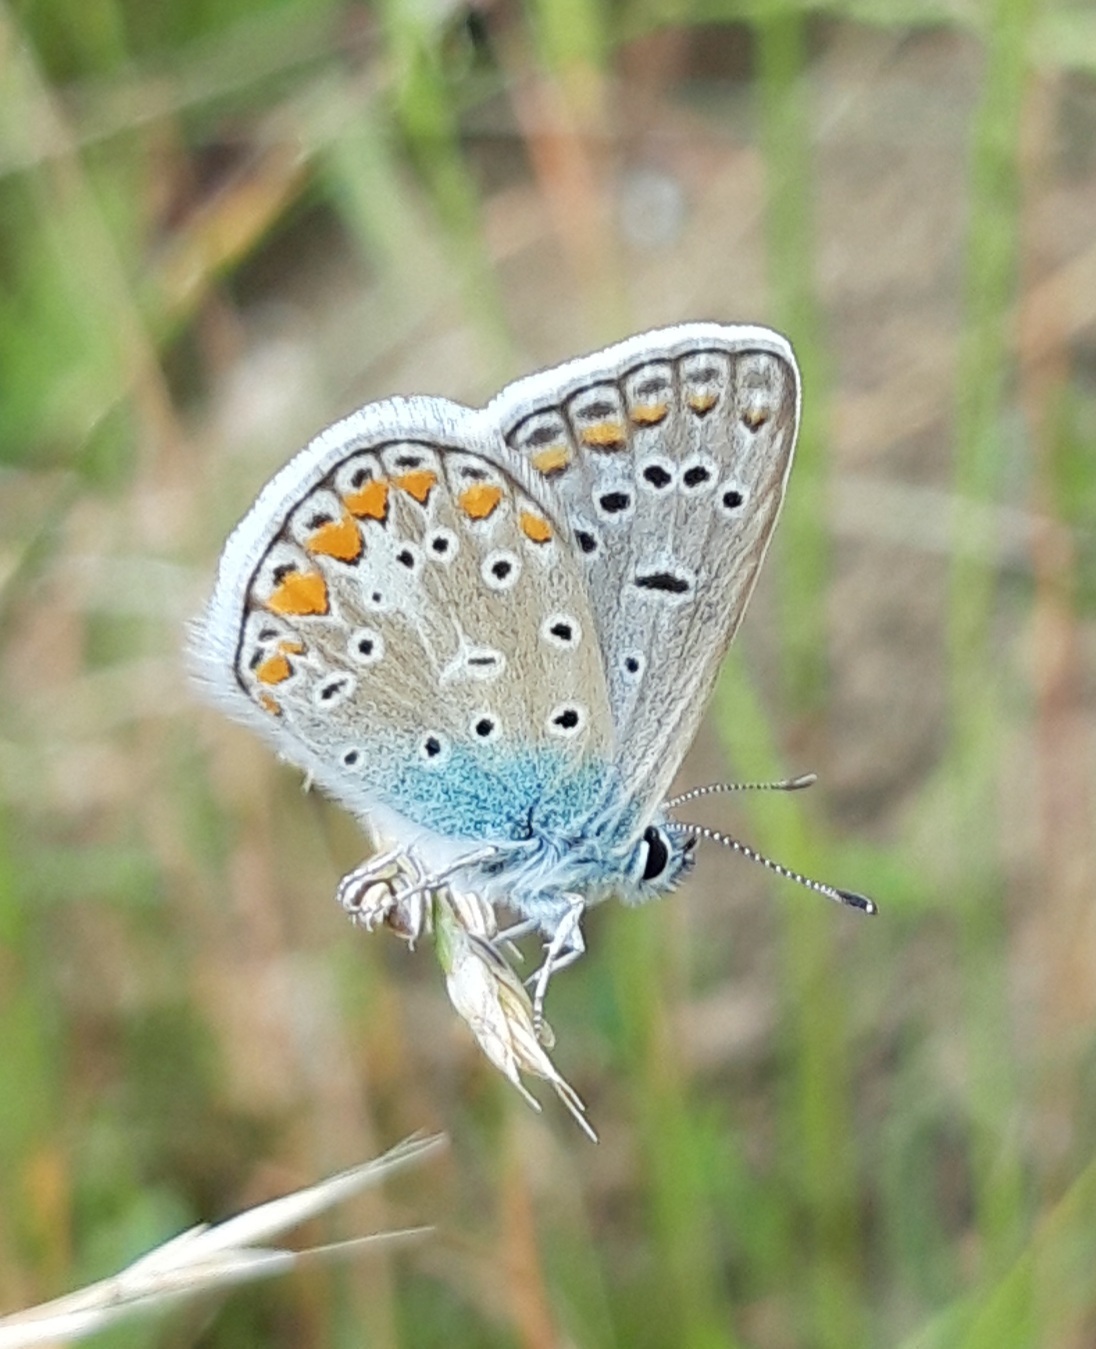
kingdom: Animalia
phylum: Arthropoda
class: Insecta
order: Lepidoptera
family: Lycaenidae
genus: Polyommatus
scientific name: Polyommatus icarus
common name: Common blue
